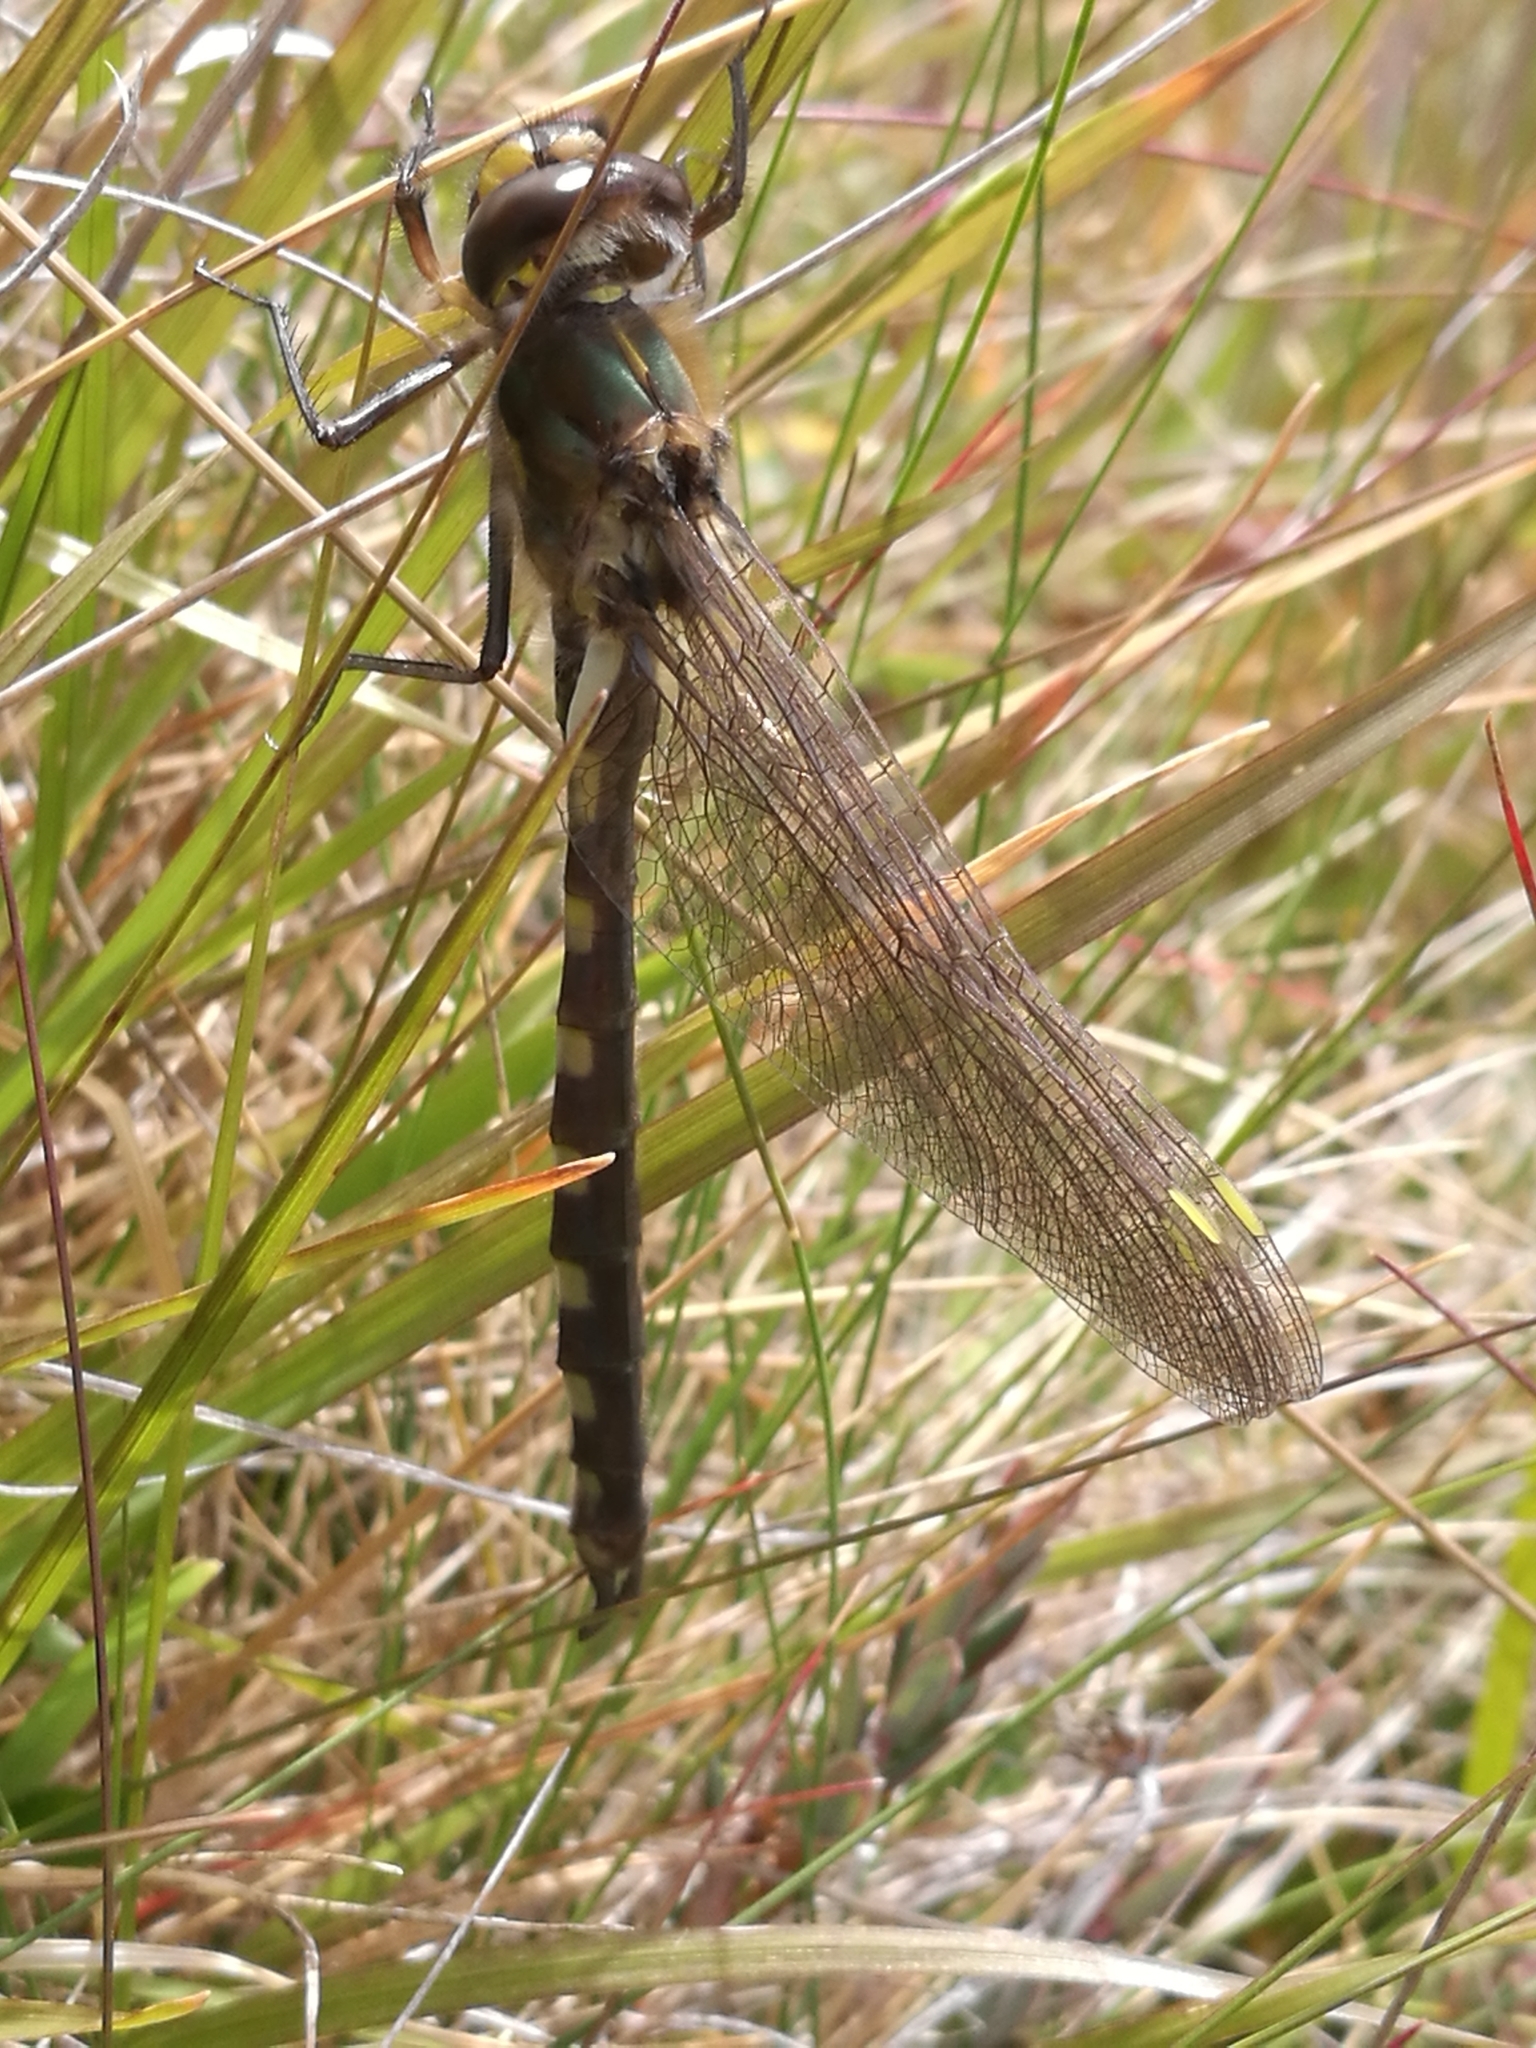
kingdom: Animalia
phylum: Arthropoda
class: Insecta
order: Odonata
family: Corduliidae
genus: Procordulia
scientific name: Procordulia grayi
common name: Yellow spotted dragonfly
